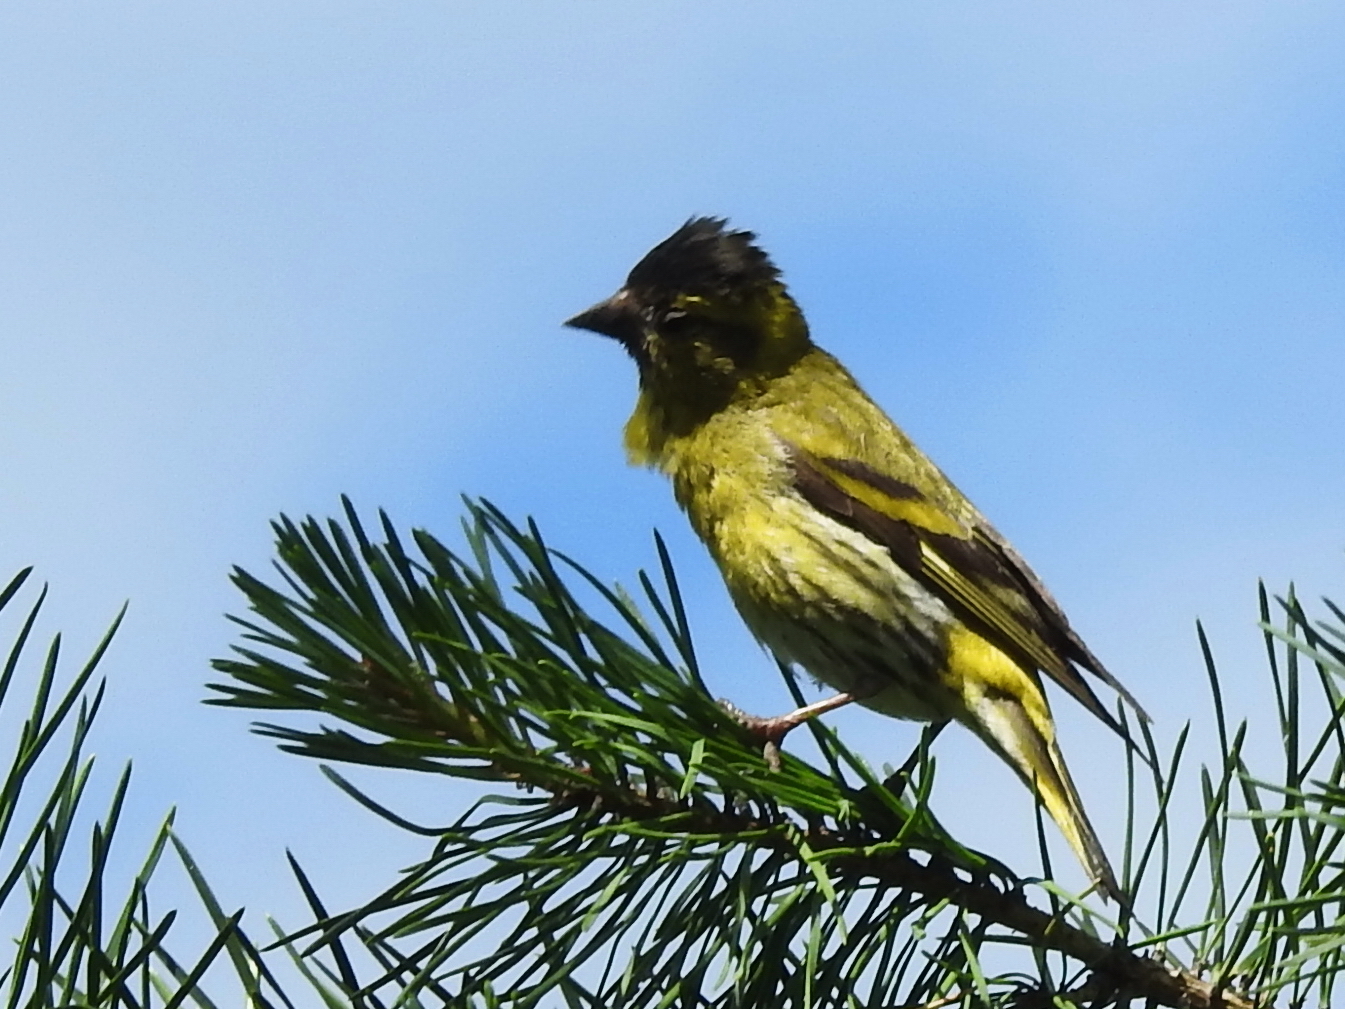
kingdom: Animalia
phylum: Chordata
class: Aves
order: Passeriformes
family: Fringillidae
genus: Spinus
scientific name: Spinus spinus
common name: Eurasian siskin
